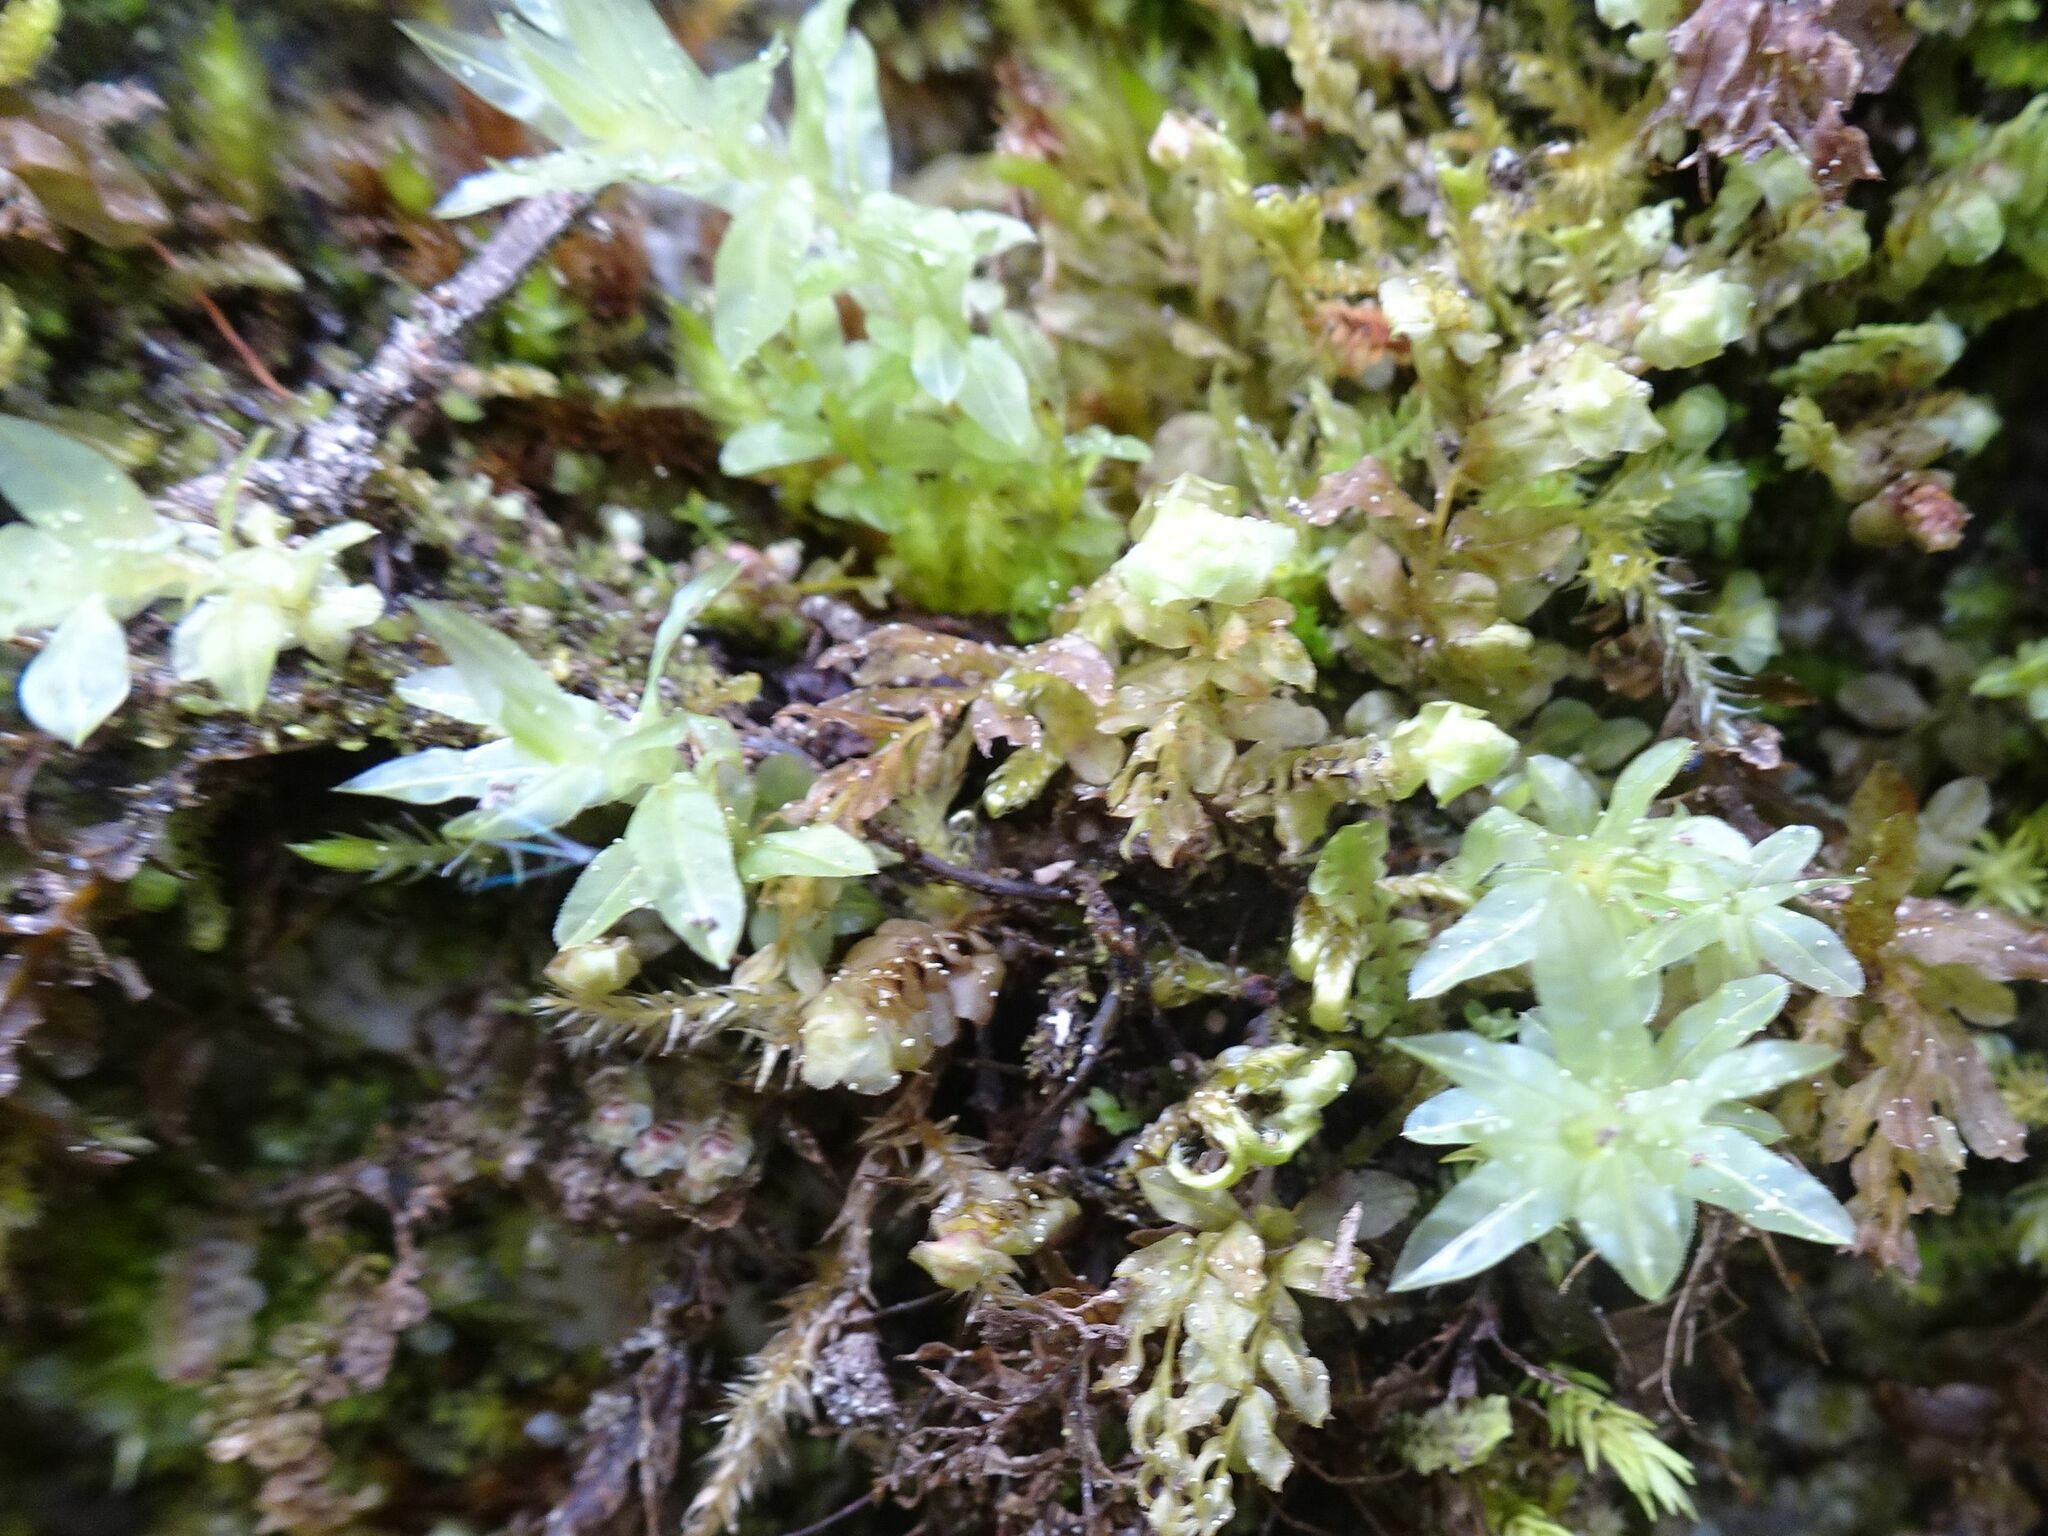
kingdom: Plantae
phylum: Bryophyta
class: Bryopsida
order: Bryales
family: Mniaceae
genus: Plagiomnium
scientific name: Plagiomnium undulatum
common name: Hart's-tongue thyme-moss
